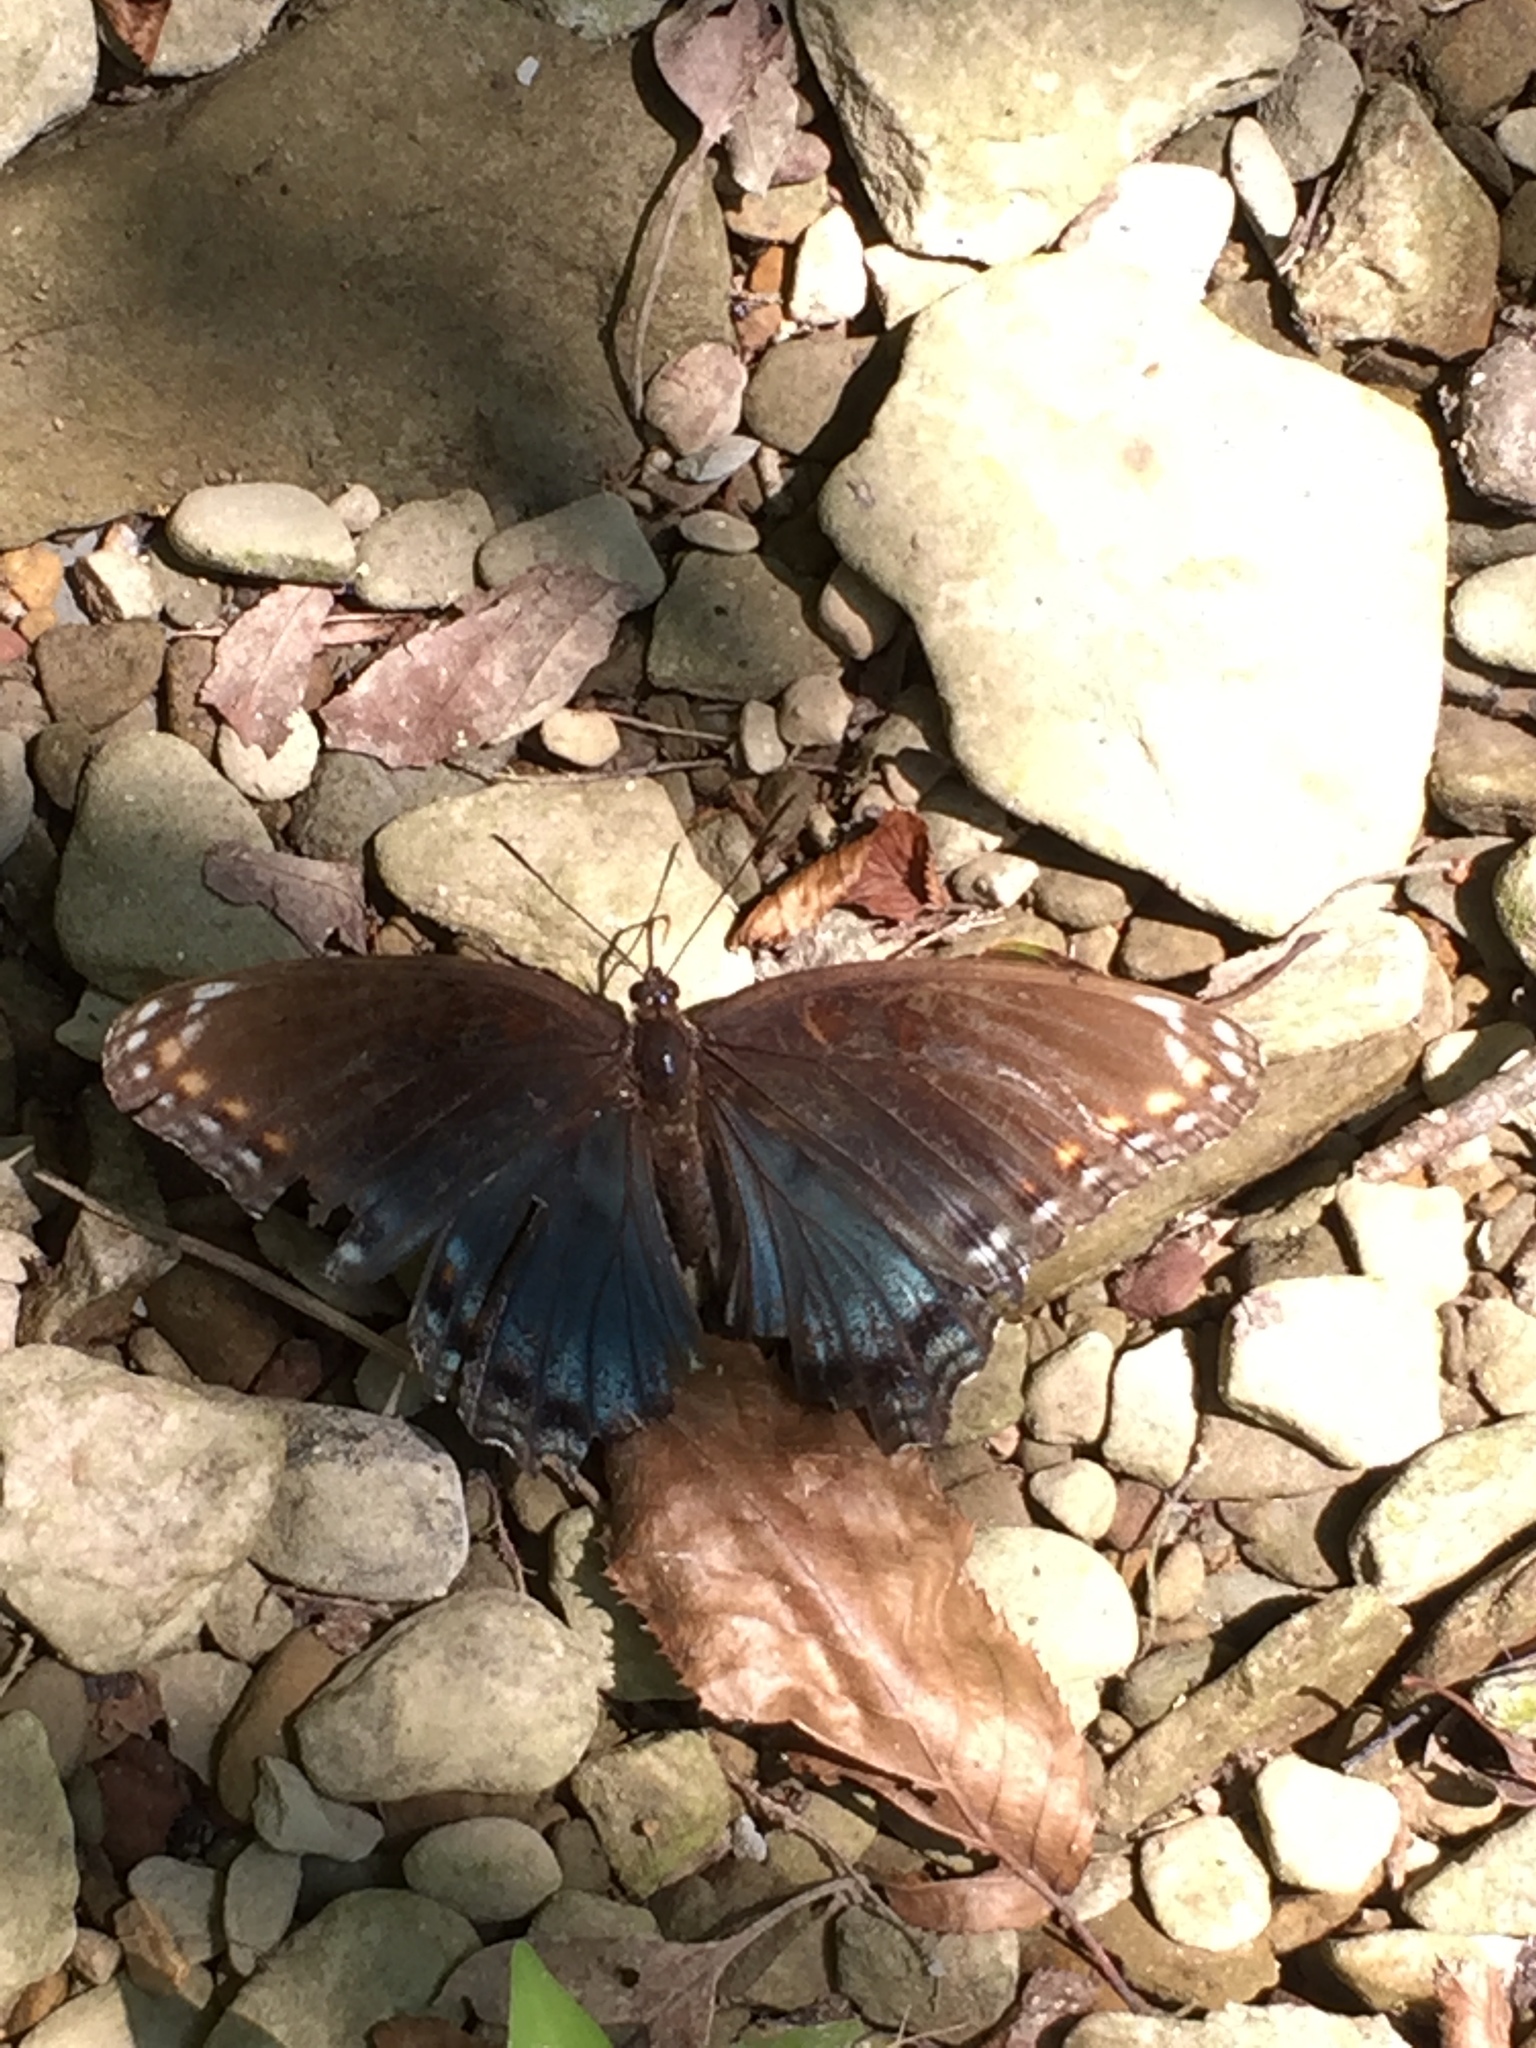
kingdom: Animalia
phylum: Arthropoda
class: Insecta
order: Lepidoptera
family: Nymphalidae
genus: Limenitis
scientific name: Limenitis arthemis
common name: Red-spotted admiral
